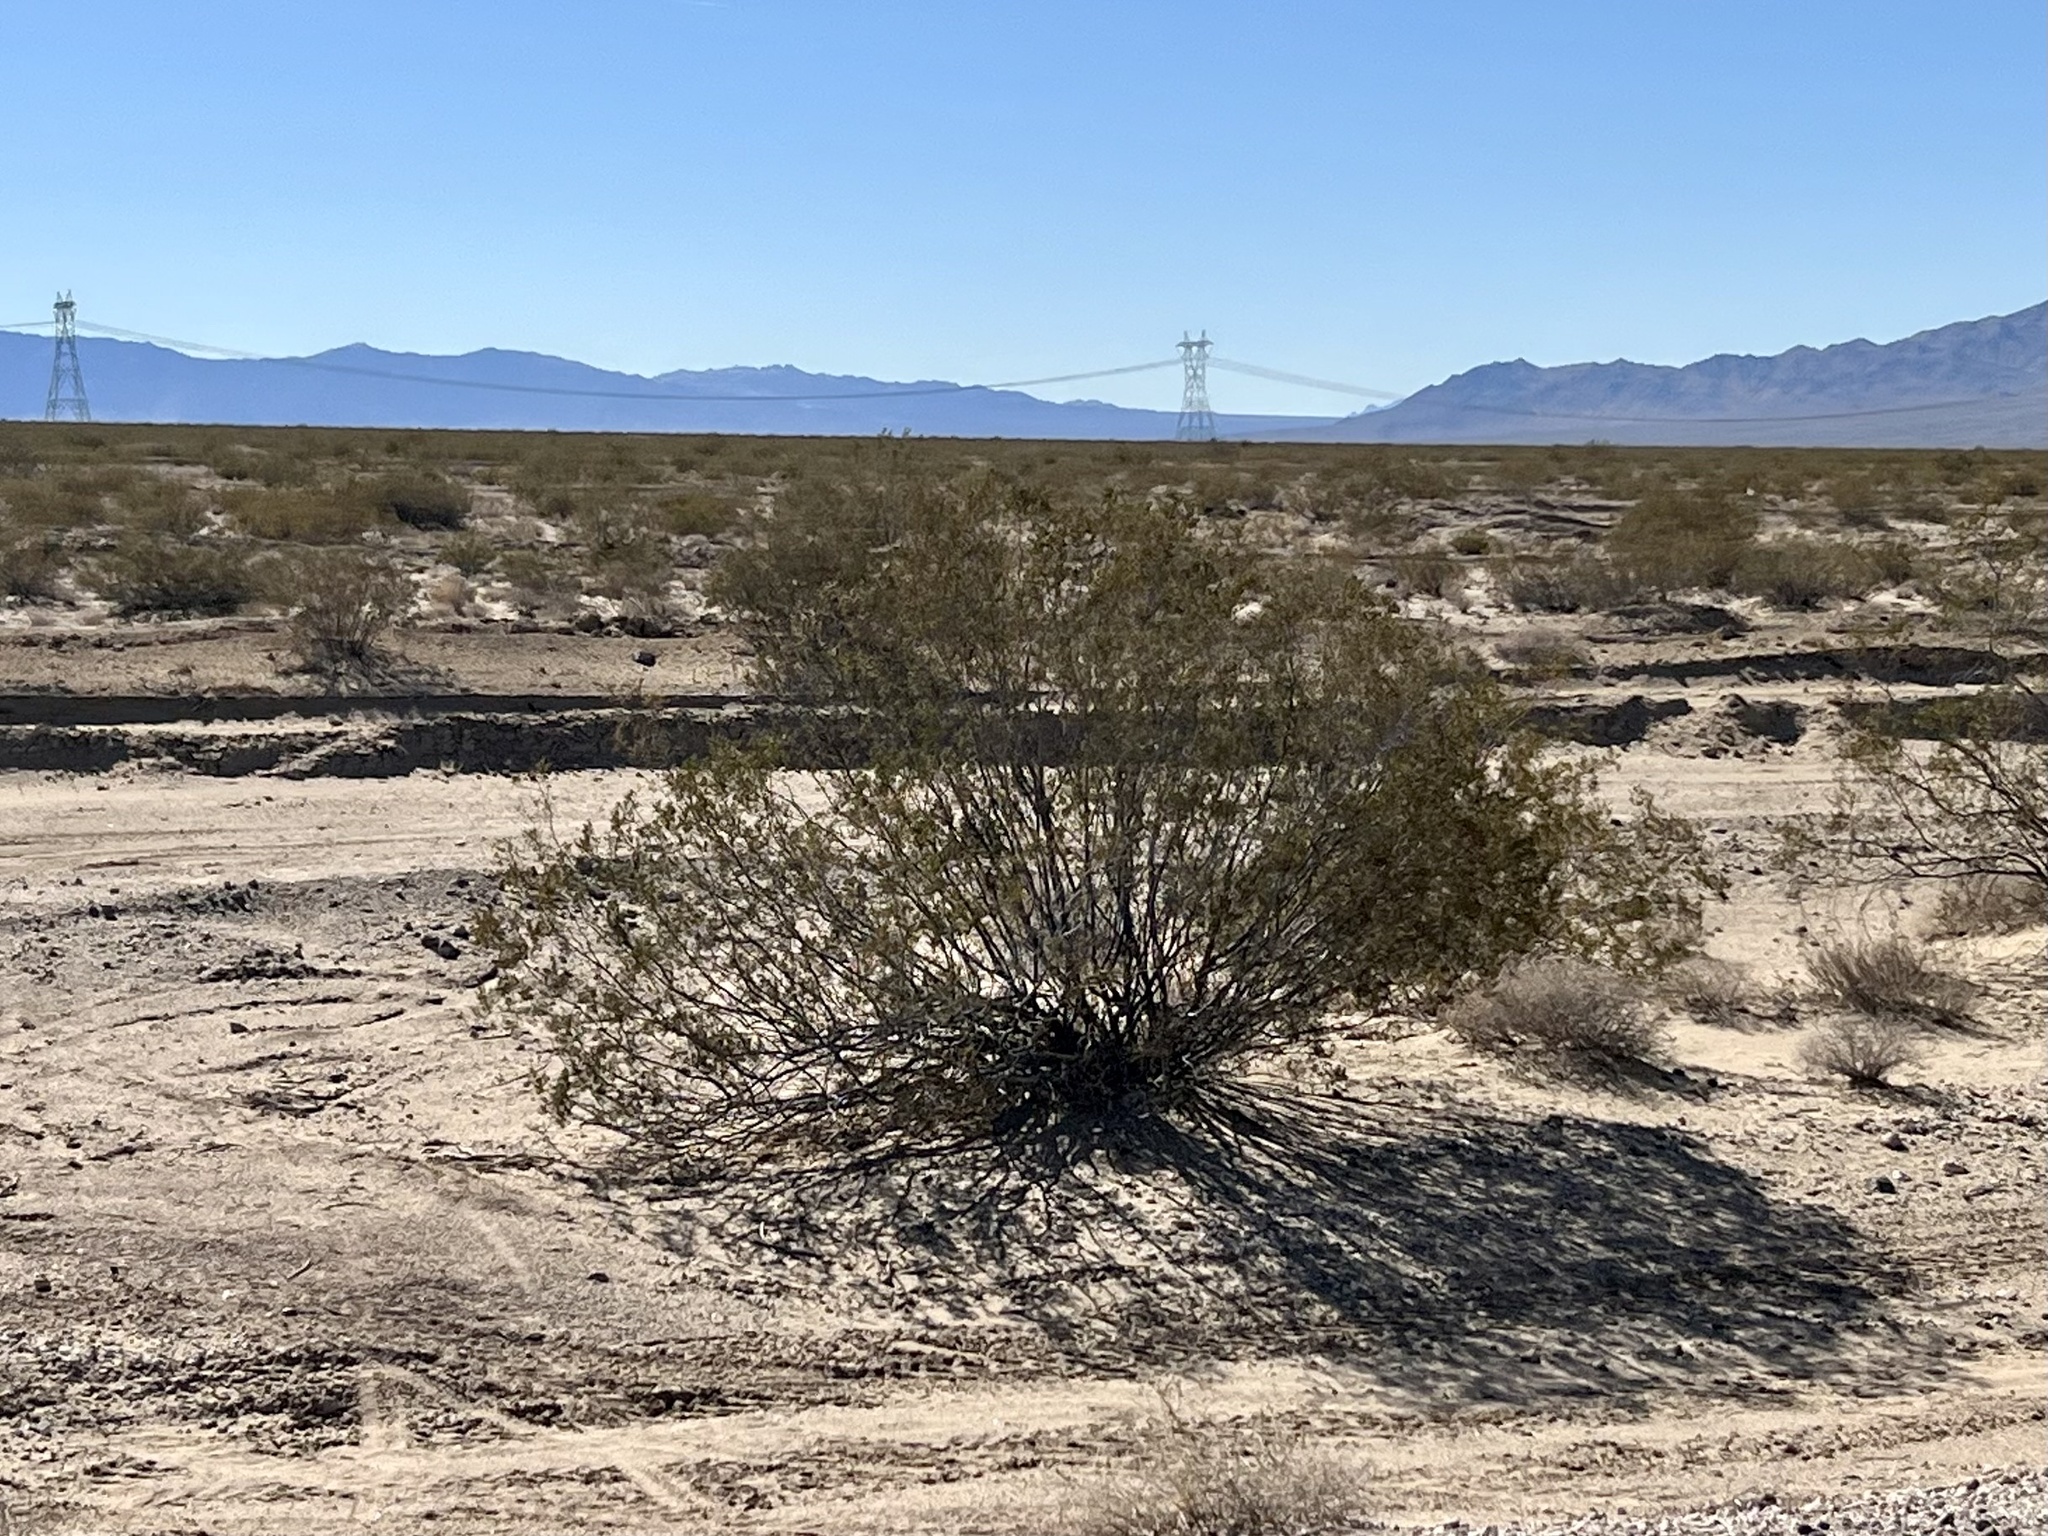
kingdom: Plantae
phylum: Tracheophyta
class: Magnoliopsida
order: Zygophyllales
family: Zygophyllaceae
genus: Larrea
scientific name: Larrea tridentata
